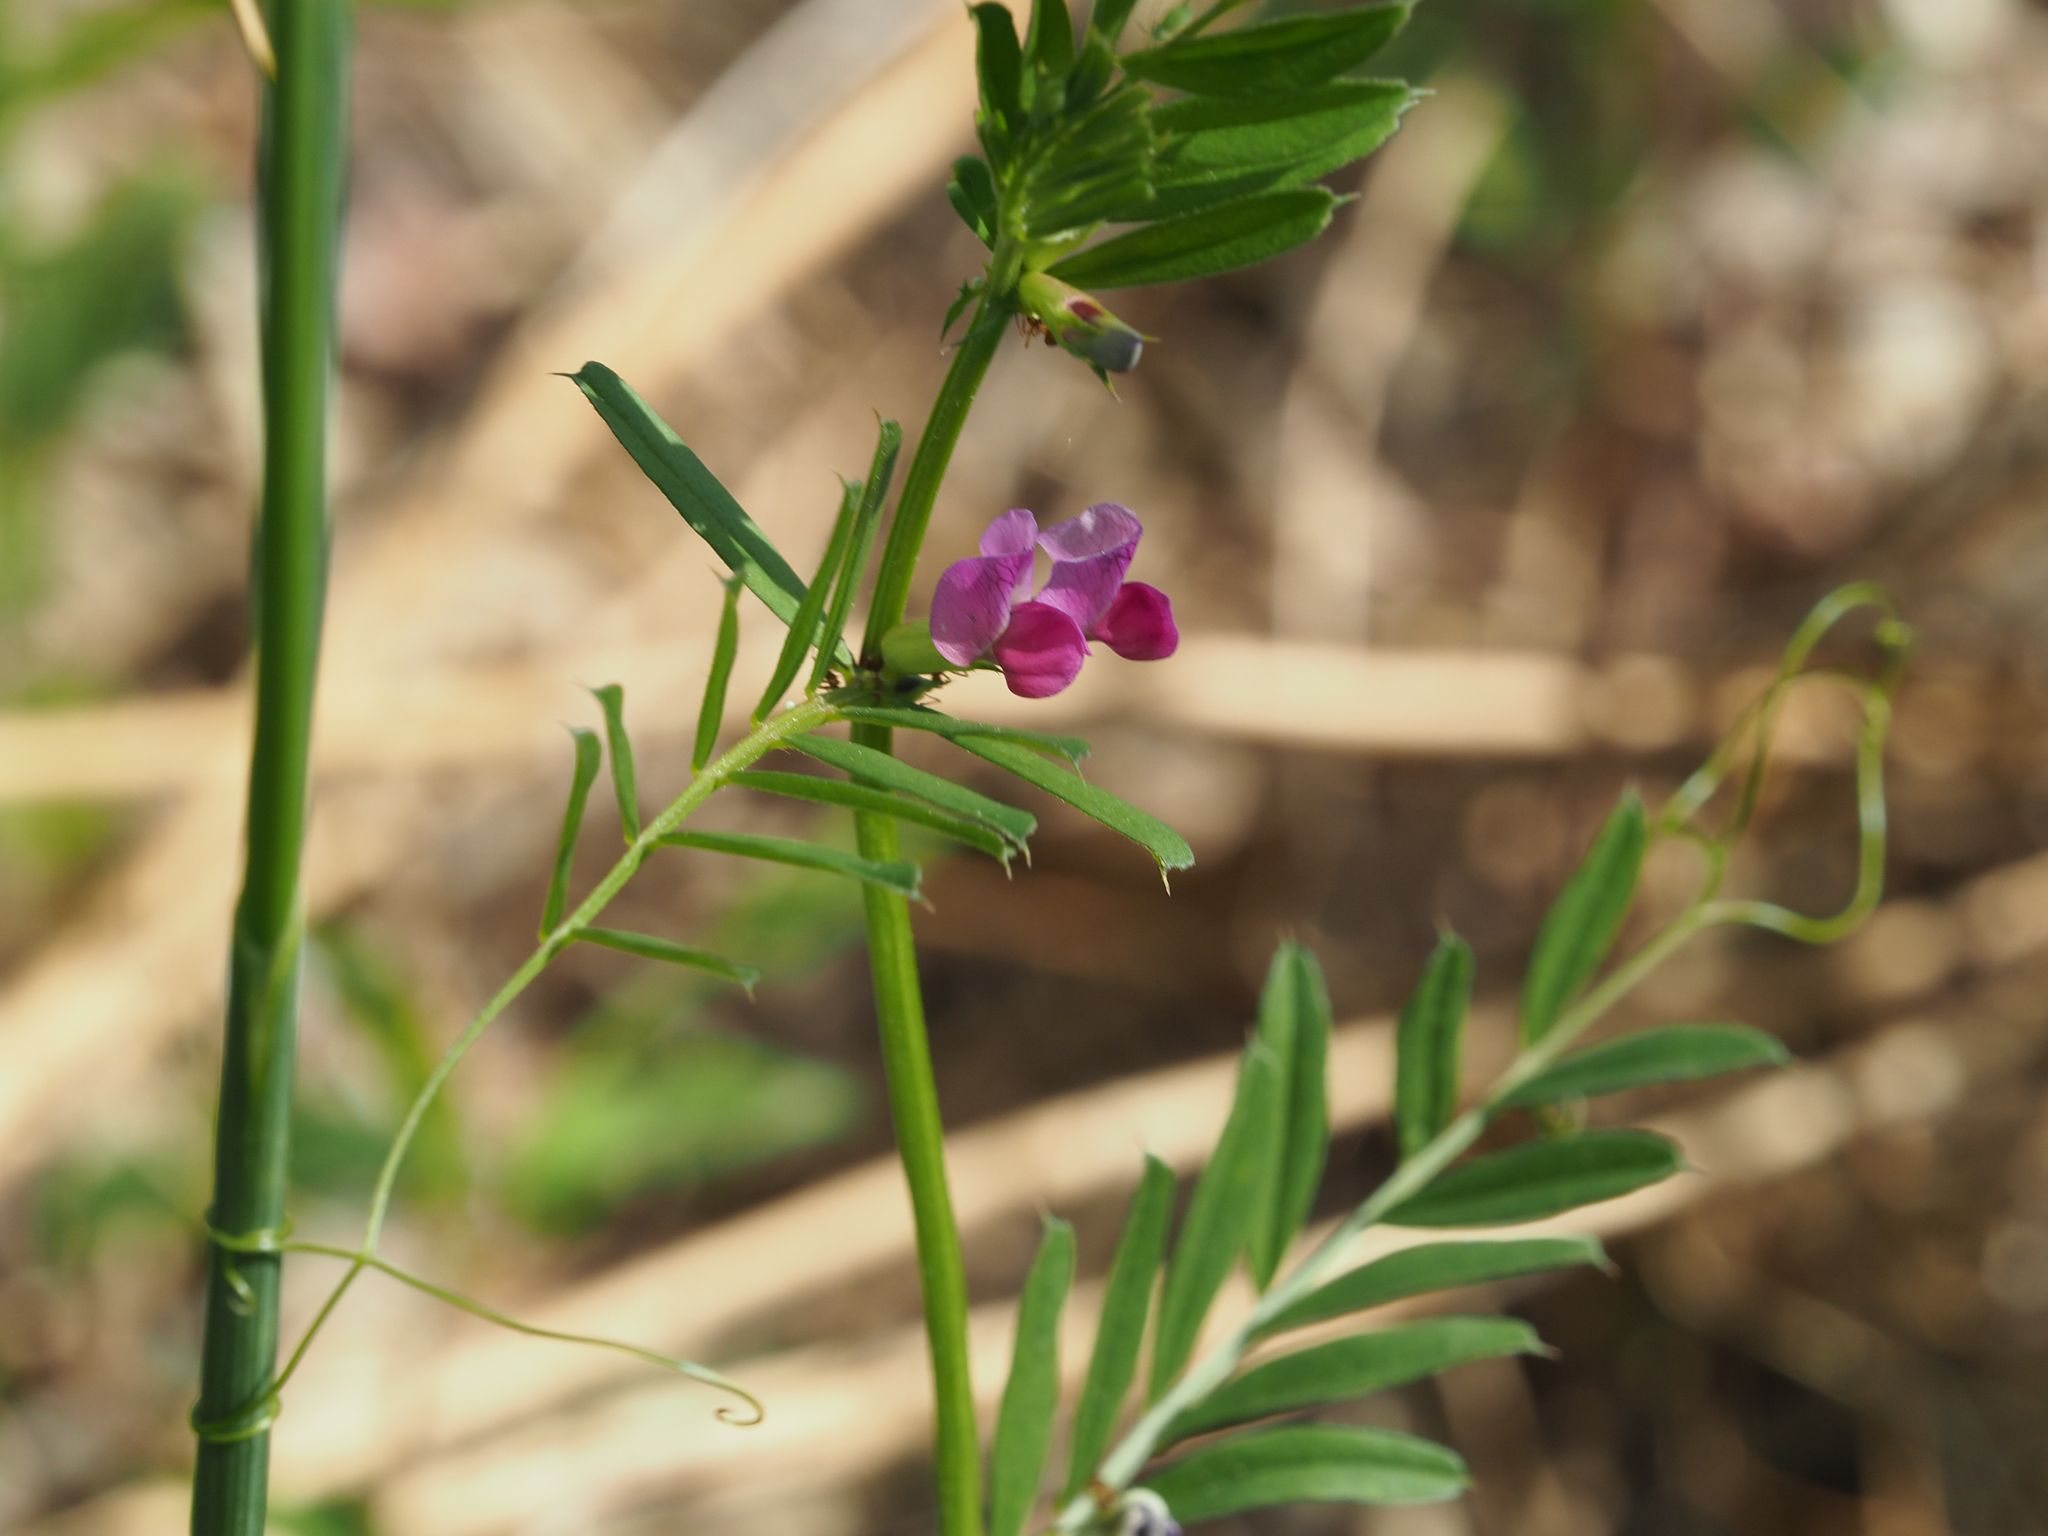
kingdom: Plantae
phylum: Tracheophyta
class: Magnoliopsida
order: Fabales
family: Fabaceae
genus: Vicia
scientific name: Vicia sativa
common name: Garden vetch
